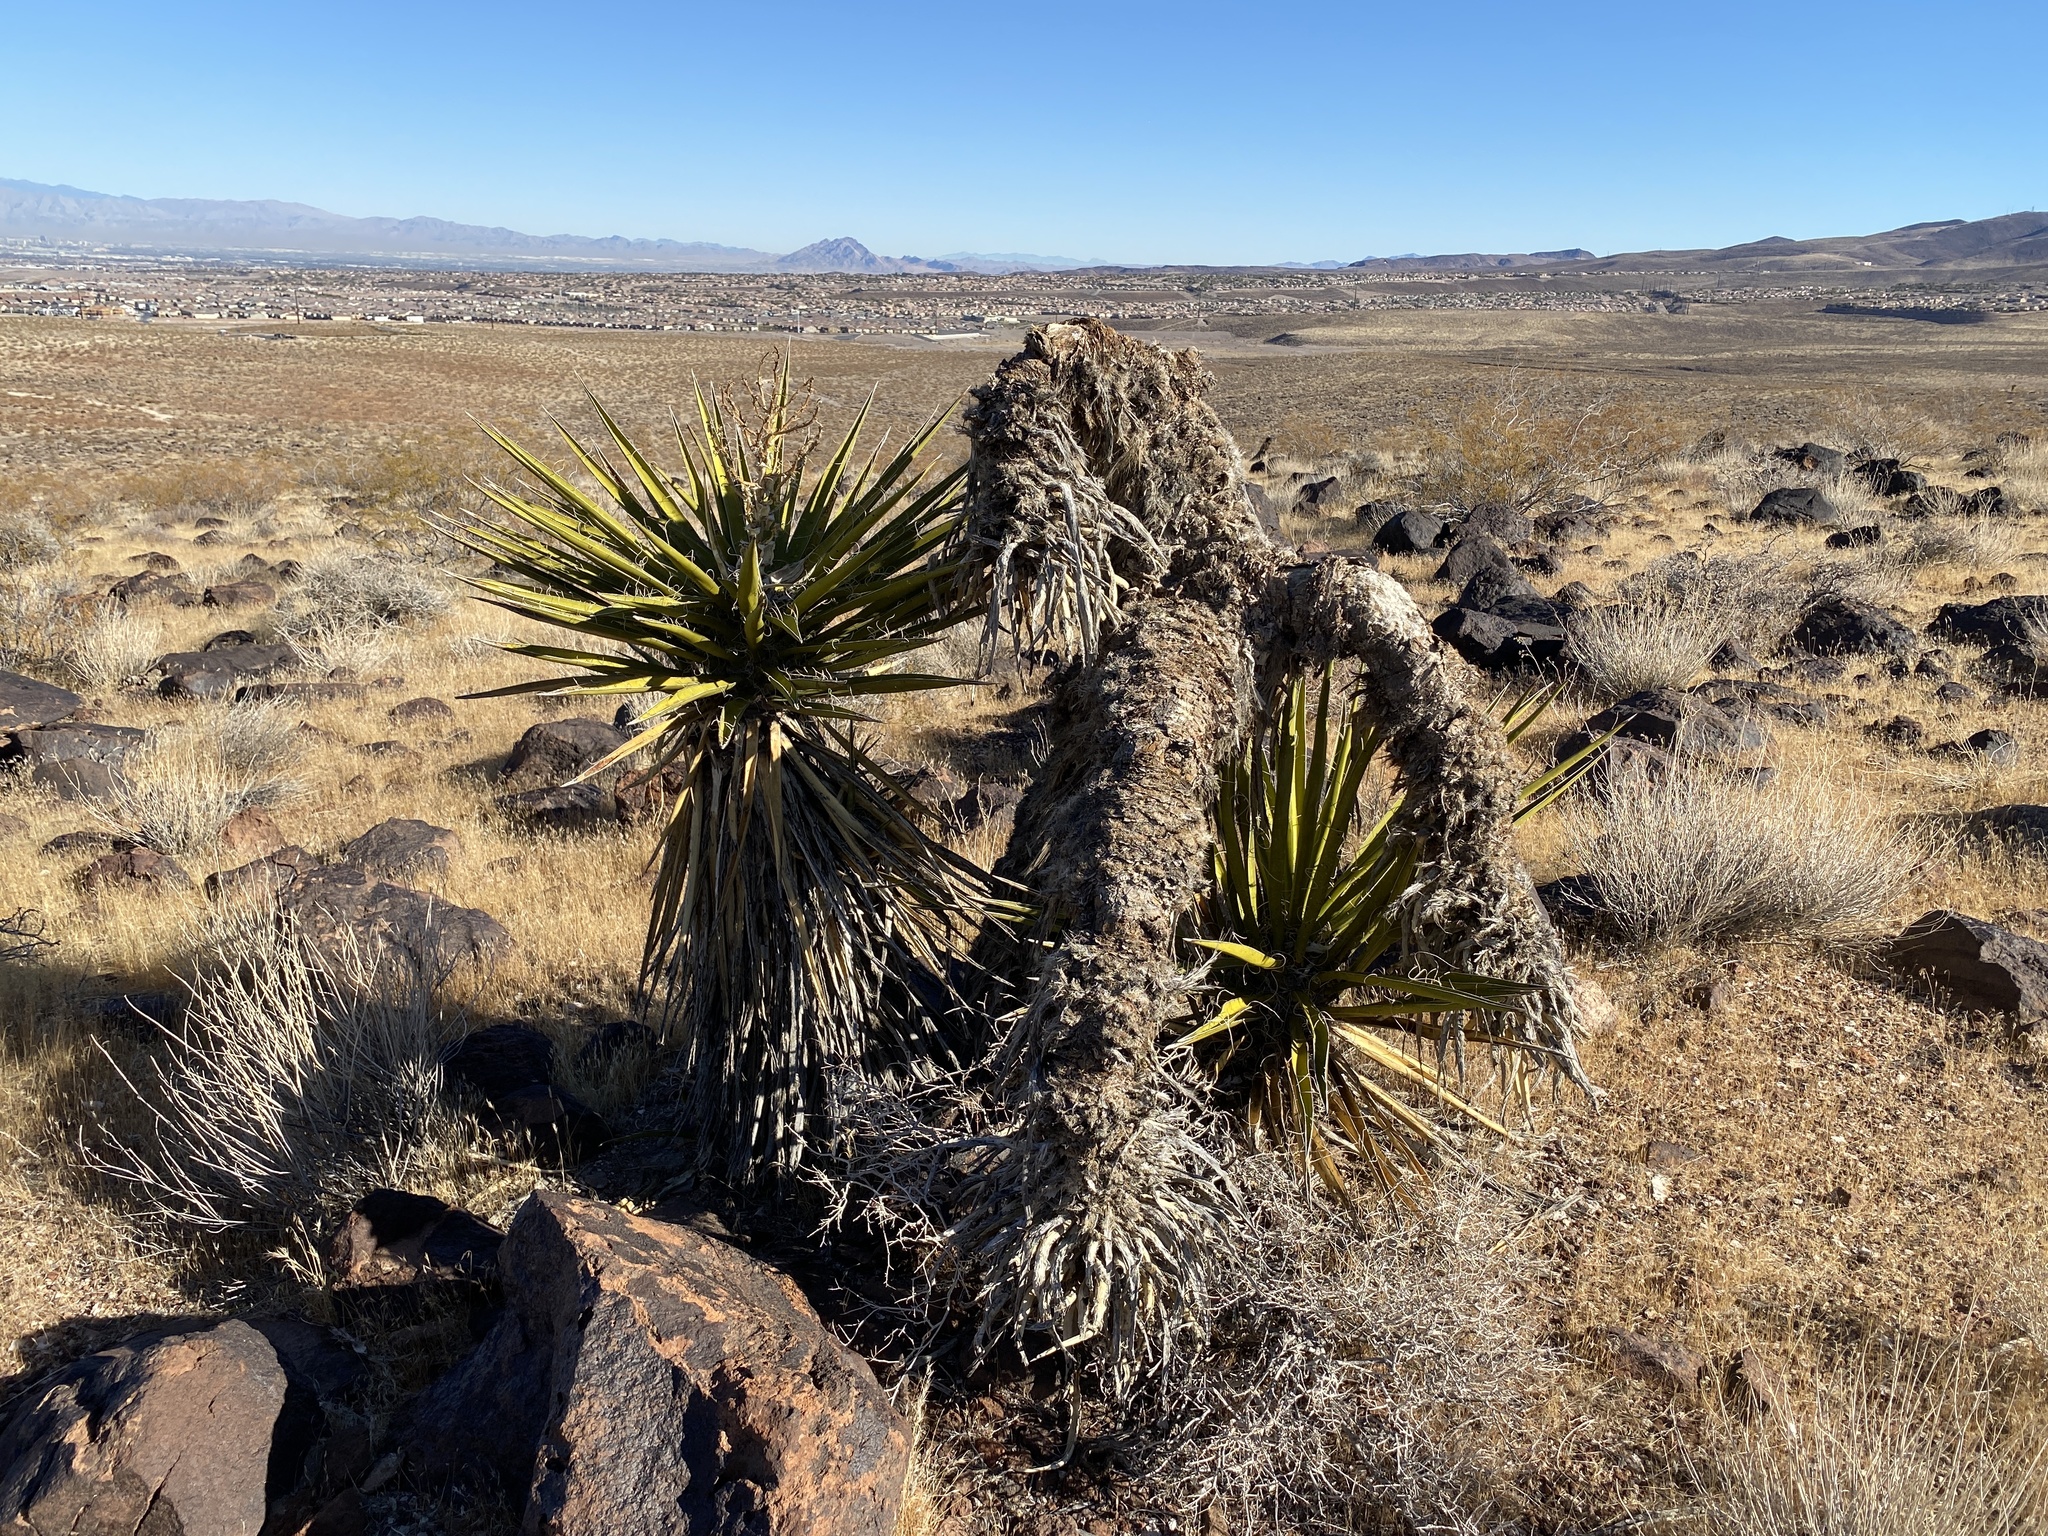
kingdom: Plantae
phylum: Tracheophyta
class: Liliopsida
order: Asparagales
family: Asparagaceae
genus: Yucca
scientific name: Yucca schidigera
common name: Mojave yucca
